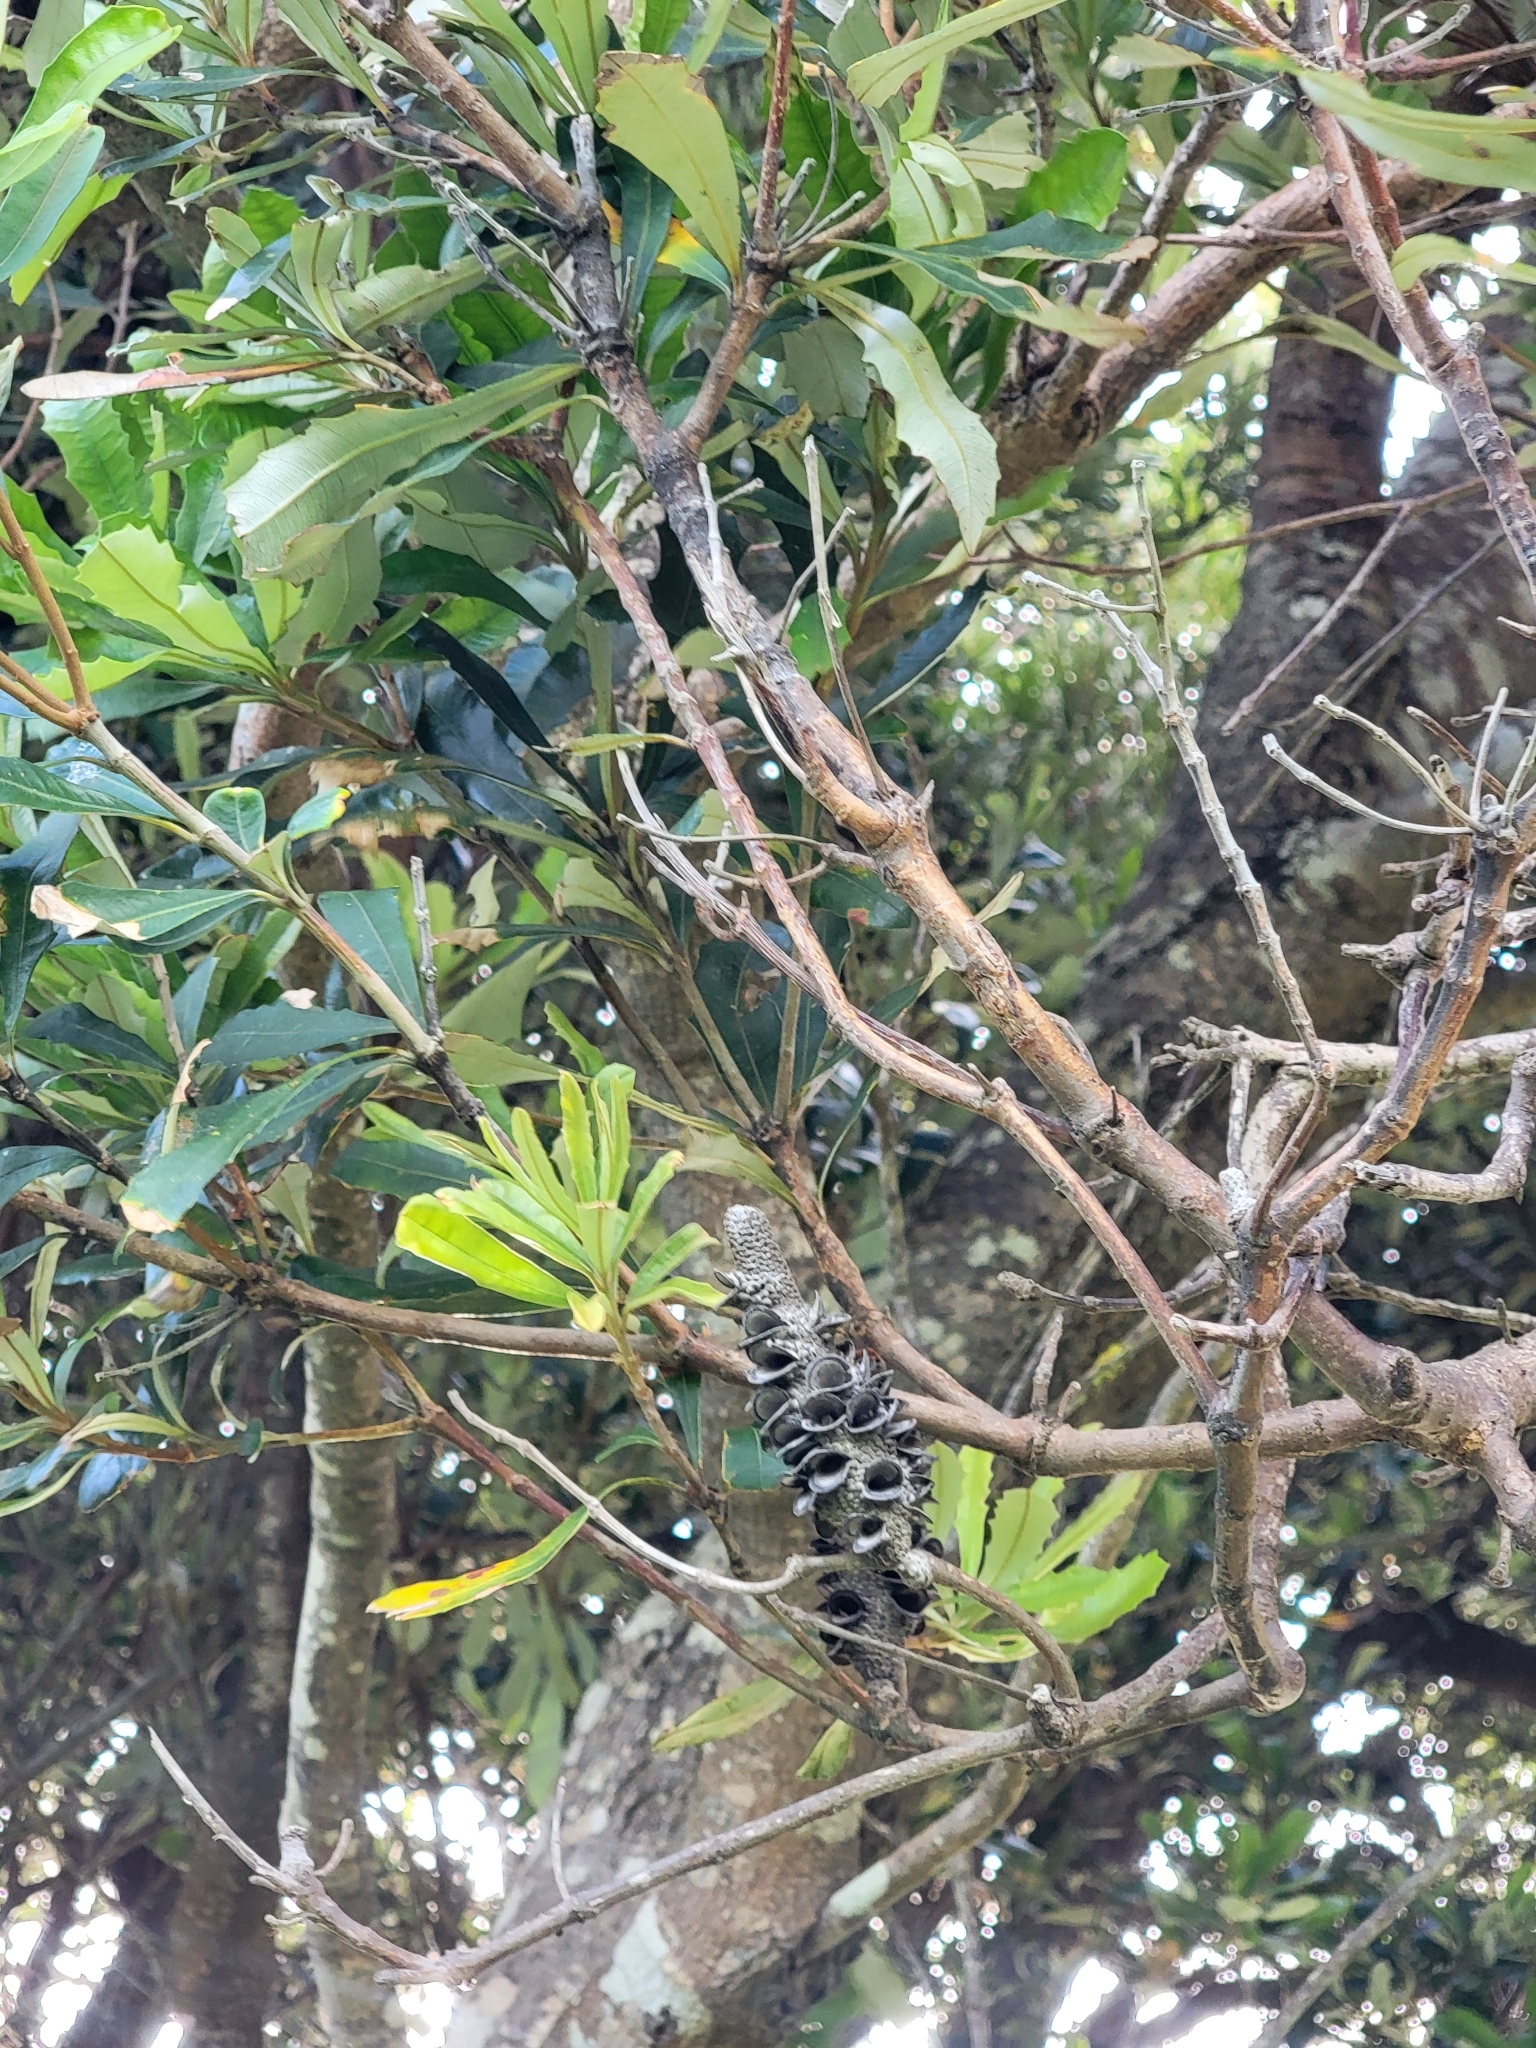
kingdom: Plantae
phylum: Tracheophyta
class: Magnoliopsida
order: Proteales
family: Proteaceae
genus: Banksia
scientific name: Banksia integrifolia
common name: White-honeysuckle
